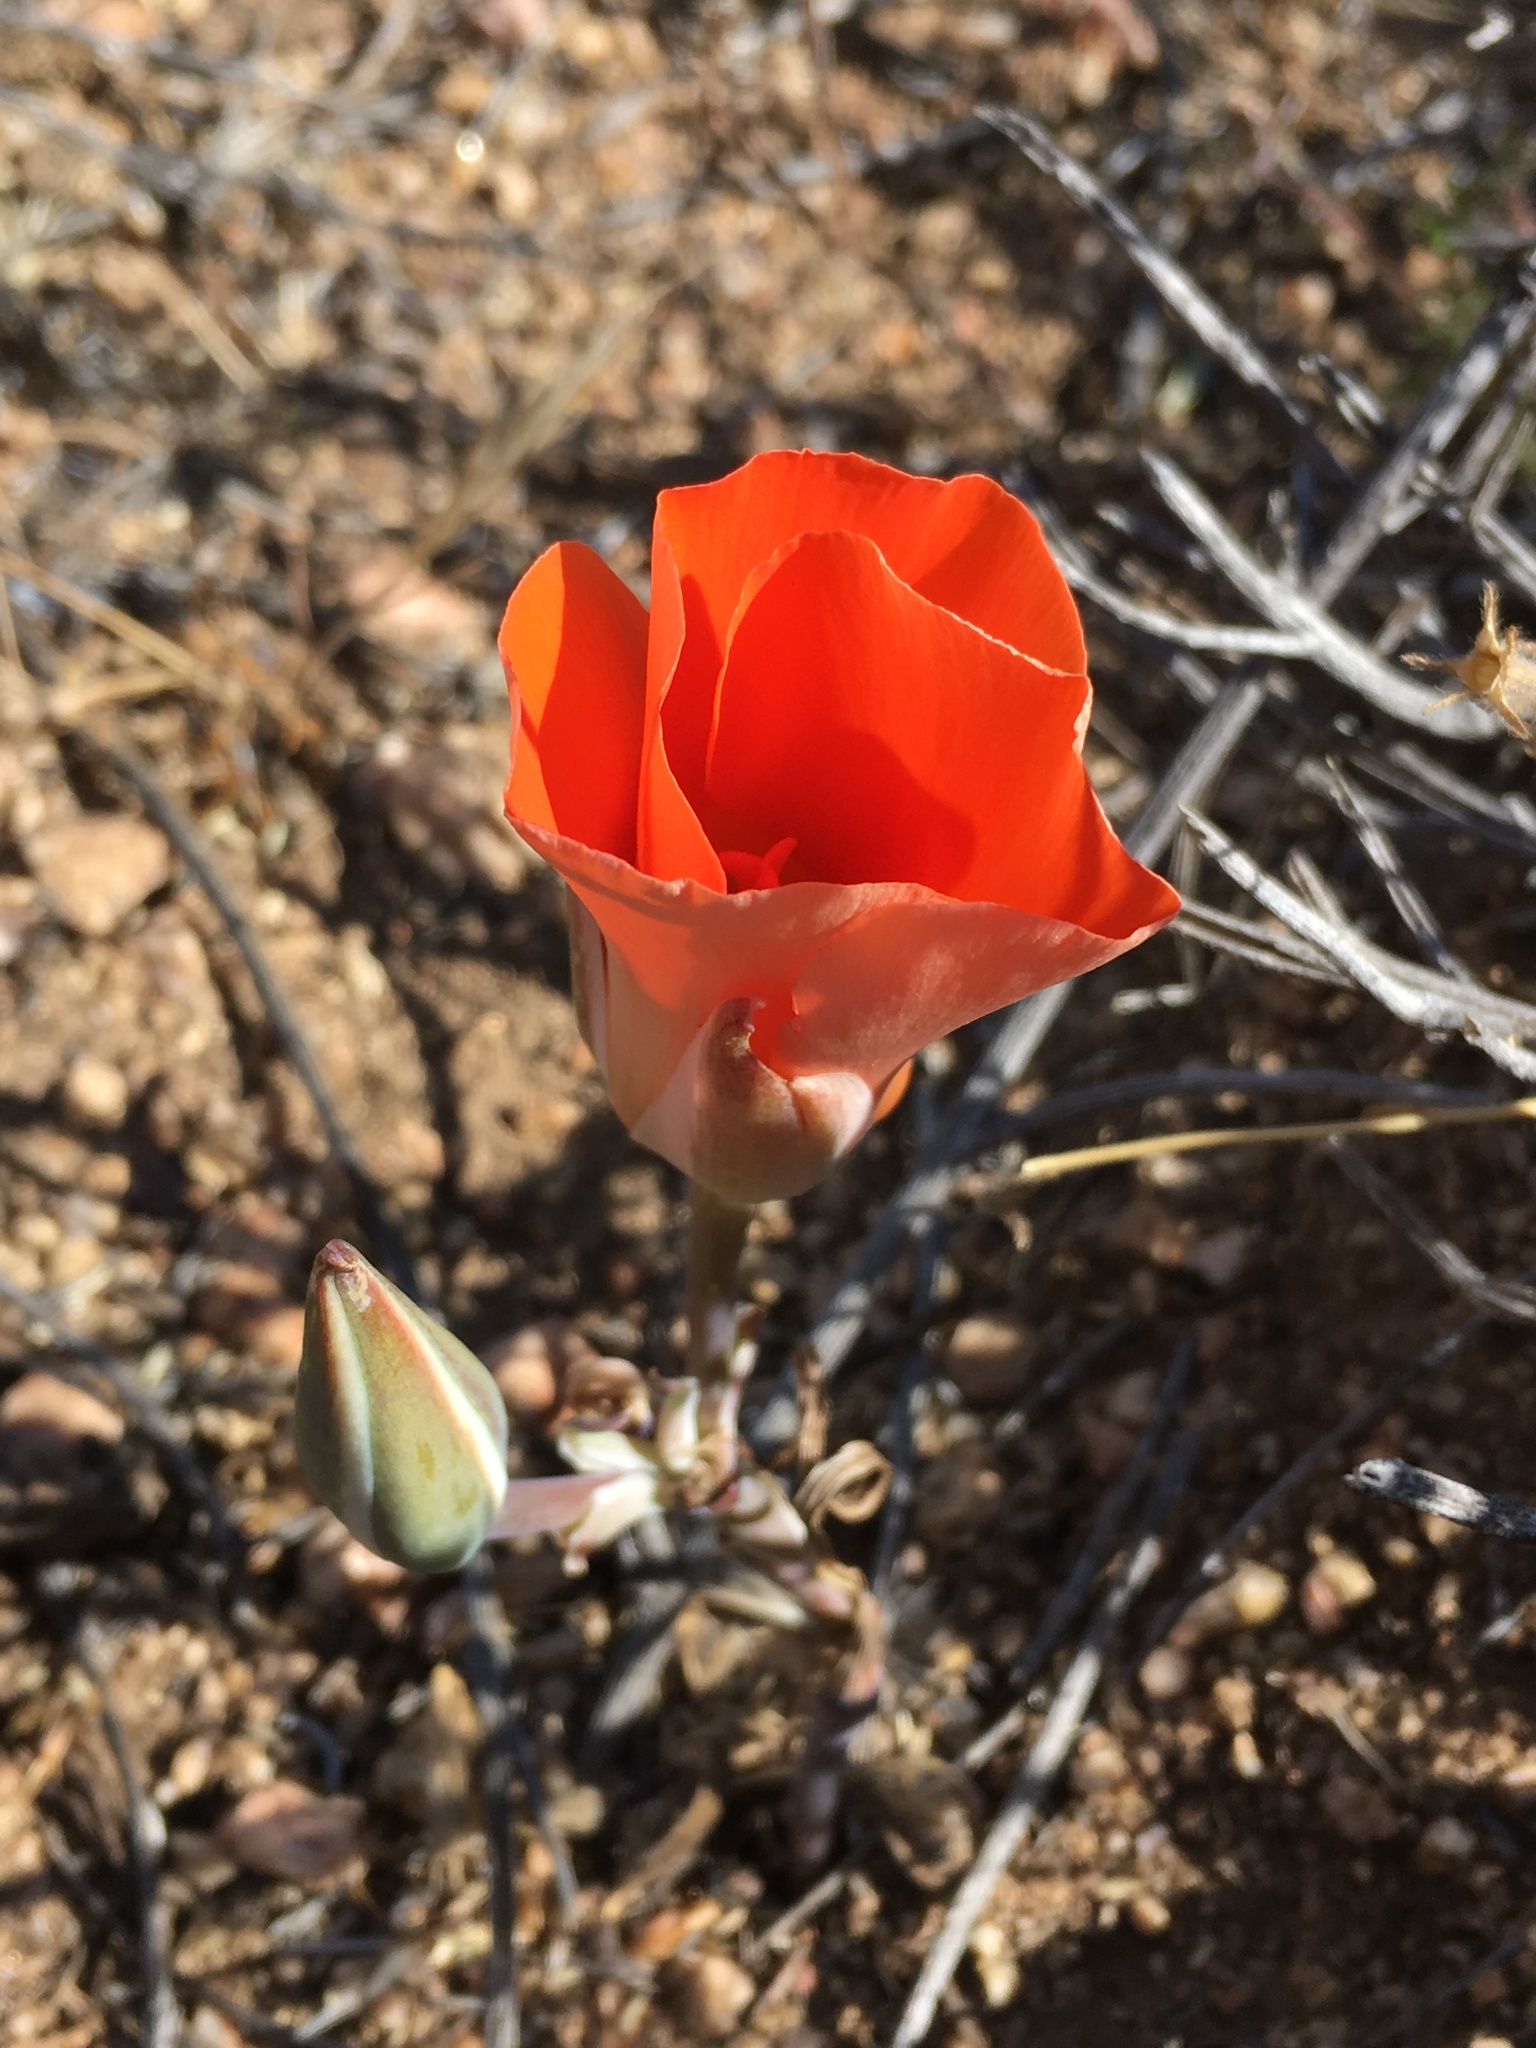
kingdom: Plantae
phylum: Tracheophyta
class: Liliopsida
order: Liliales
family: Liliaceae
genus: Calochortus
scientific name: Calochortus kennedyi
